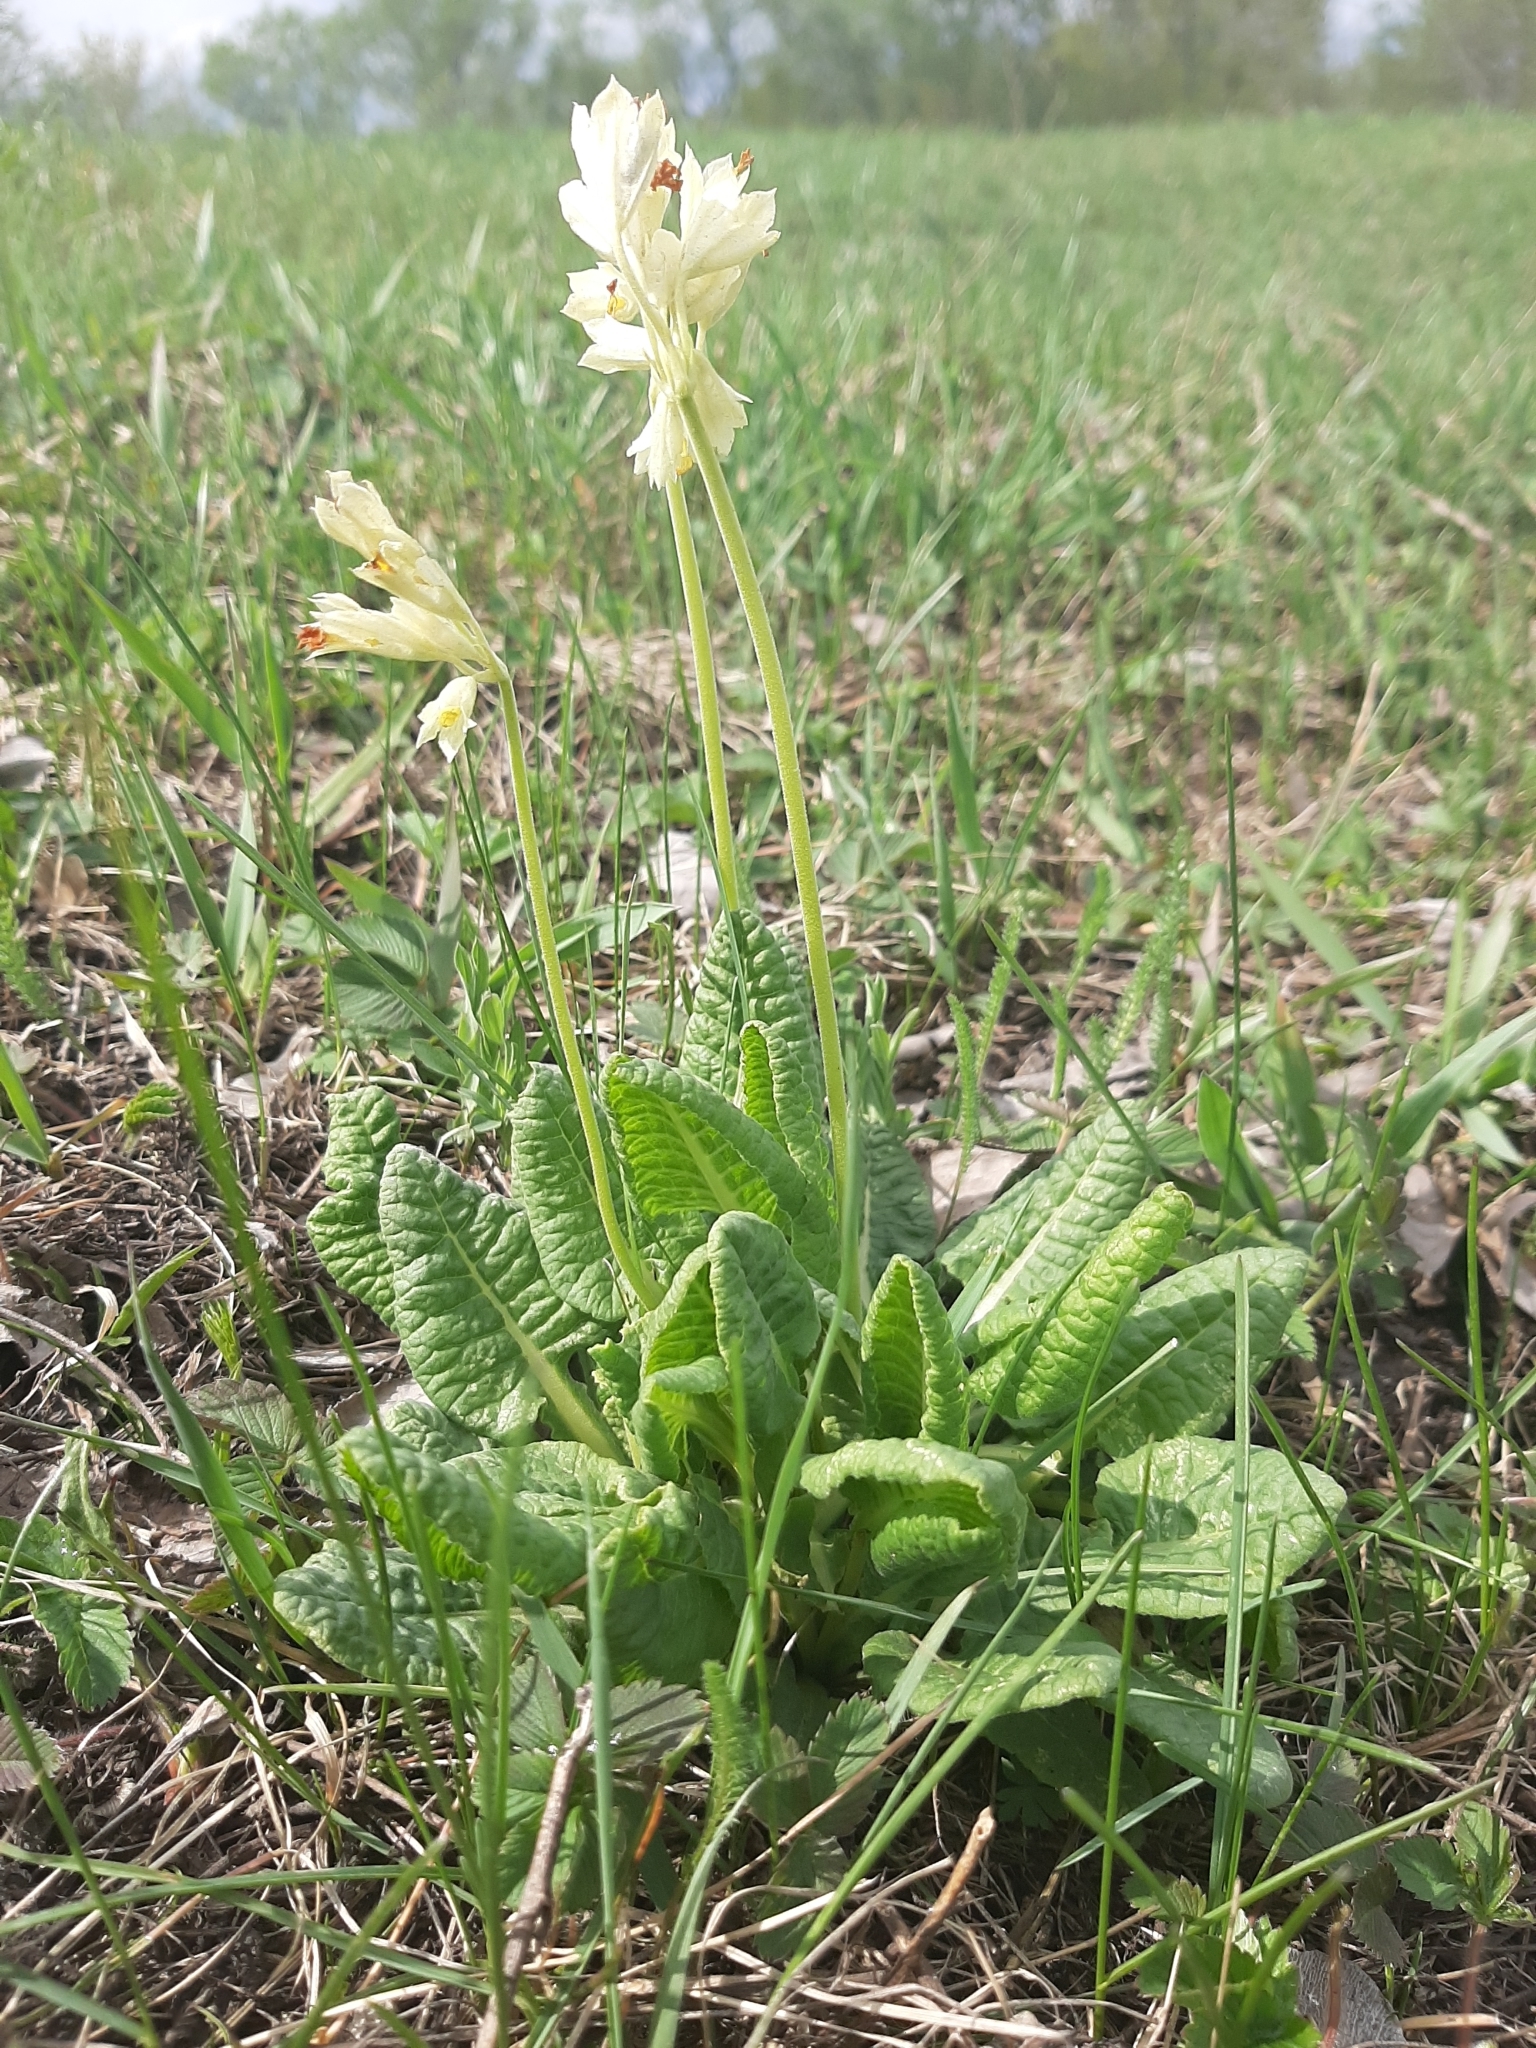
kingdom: Plantae
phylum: Tracheophyta
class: Magnoliopsida
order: Ericales
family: Primulaceae
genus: Primula
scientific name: Primula veris
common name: Cowslip
